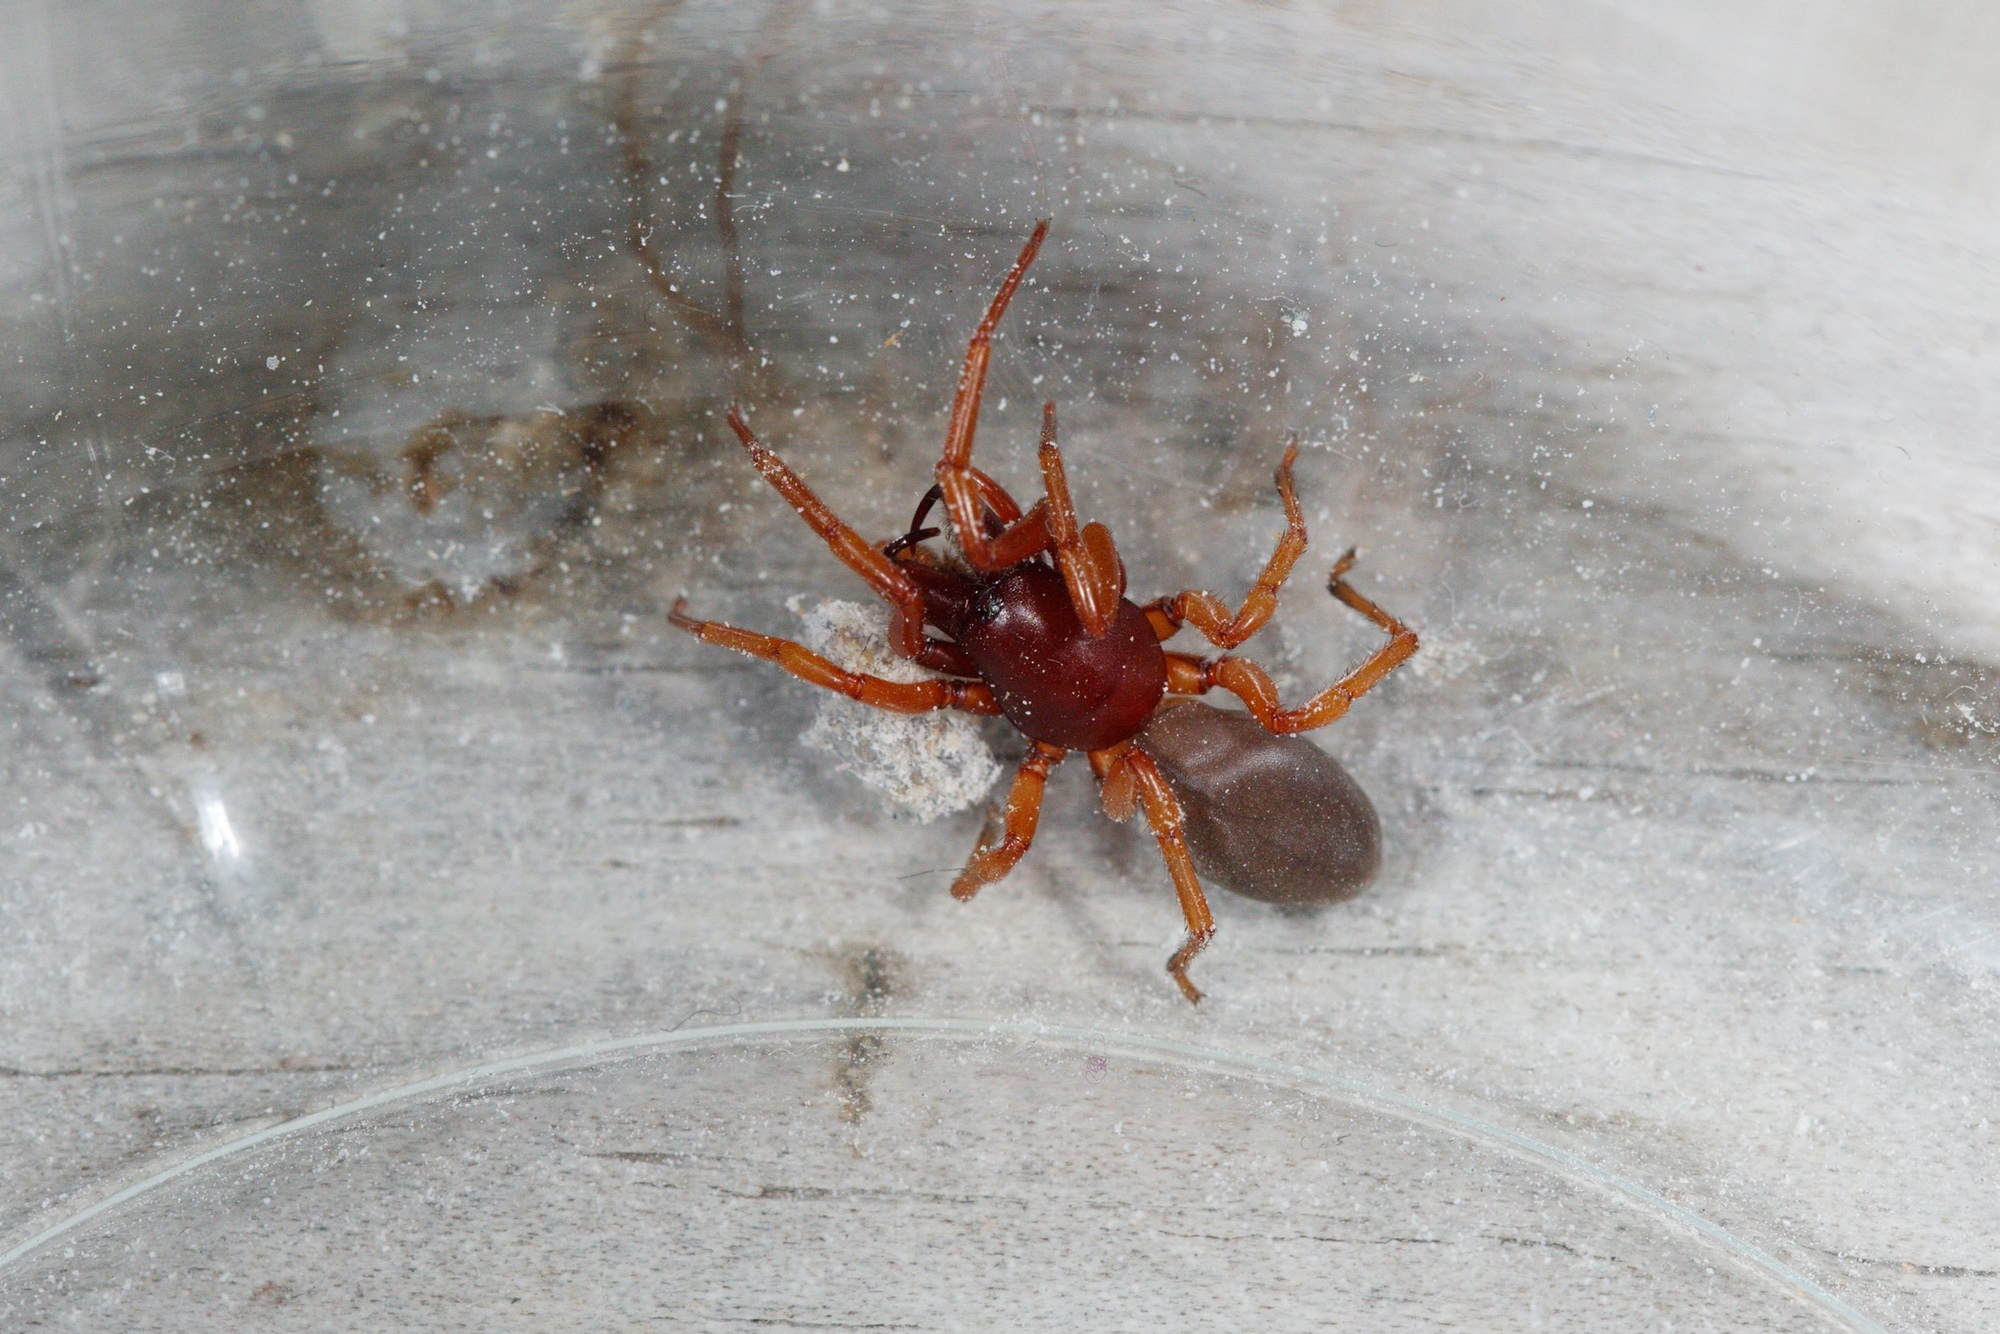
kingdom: Animalia
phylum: Arthropoda
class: Arachnida
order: Araneae
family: Dysderidae
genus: Dysdera
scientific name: Dysdera crocata
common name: Woodlouse spider
